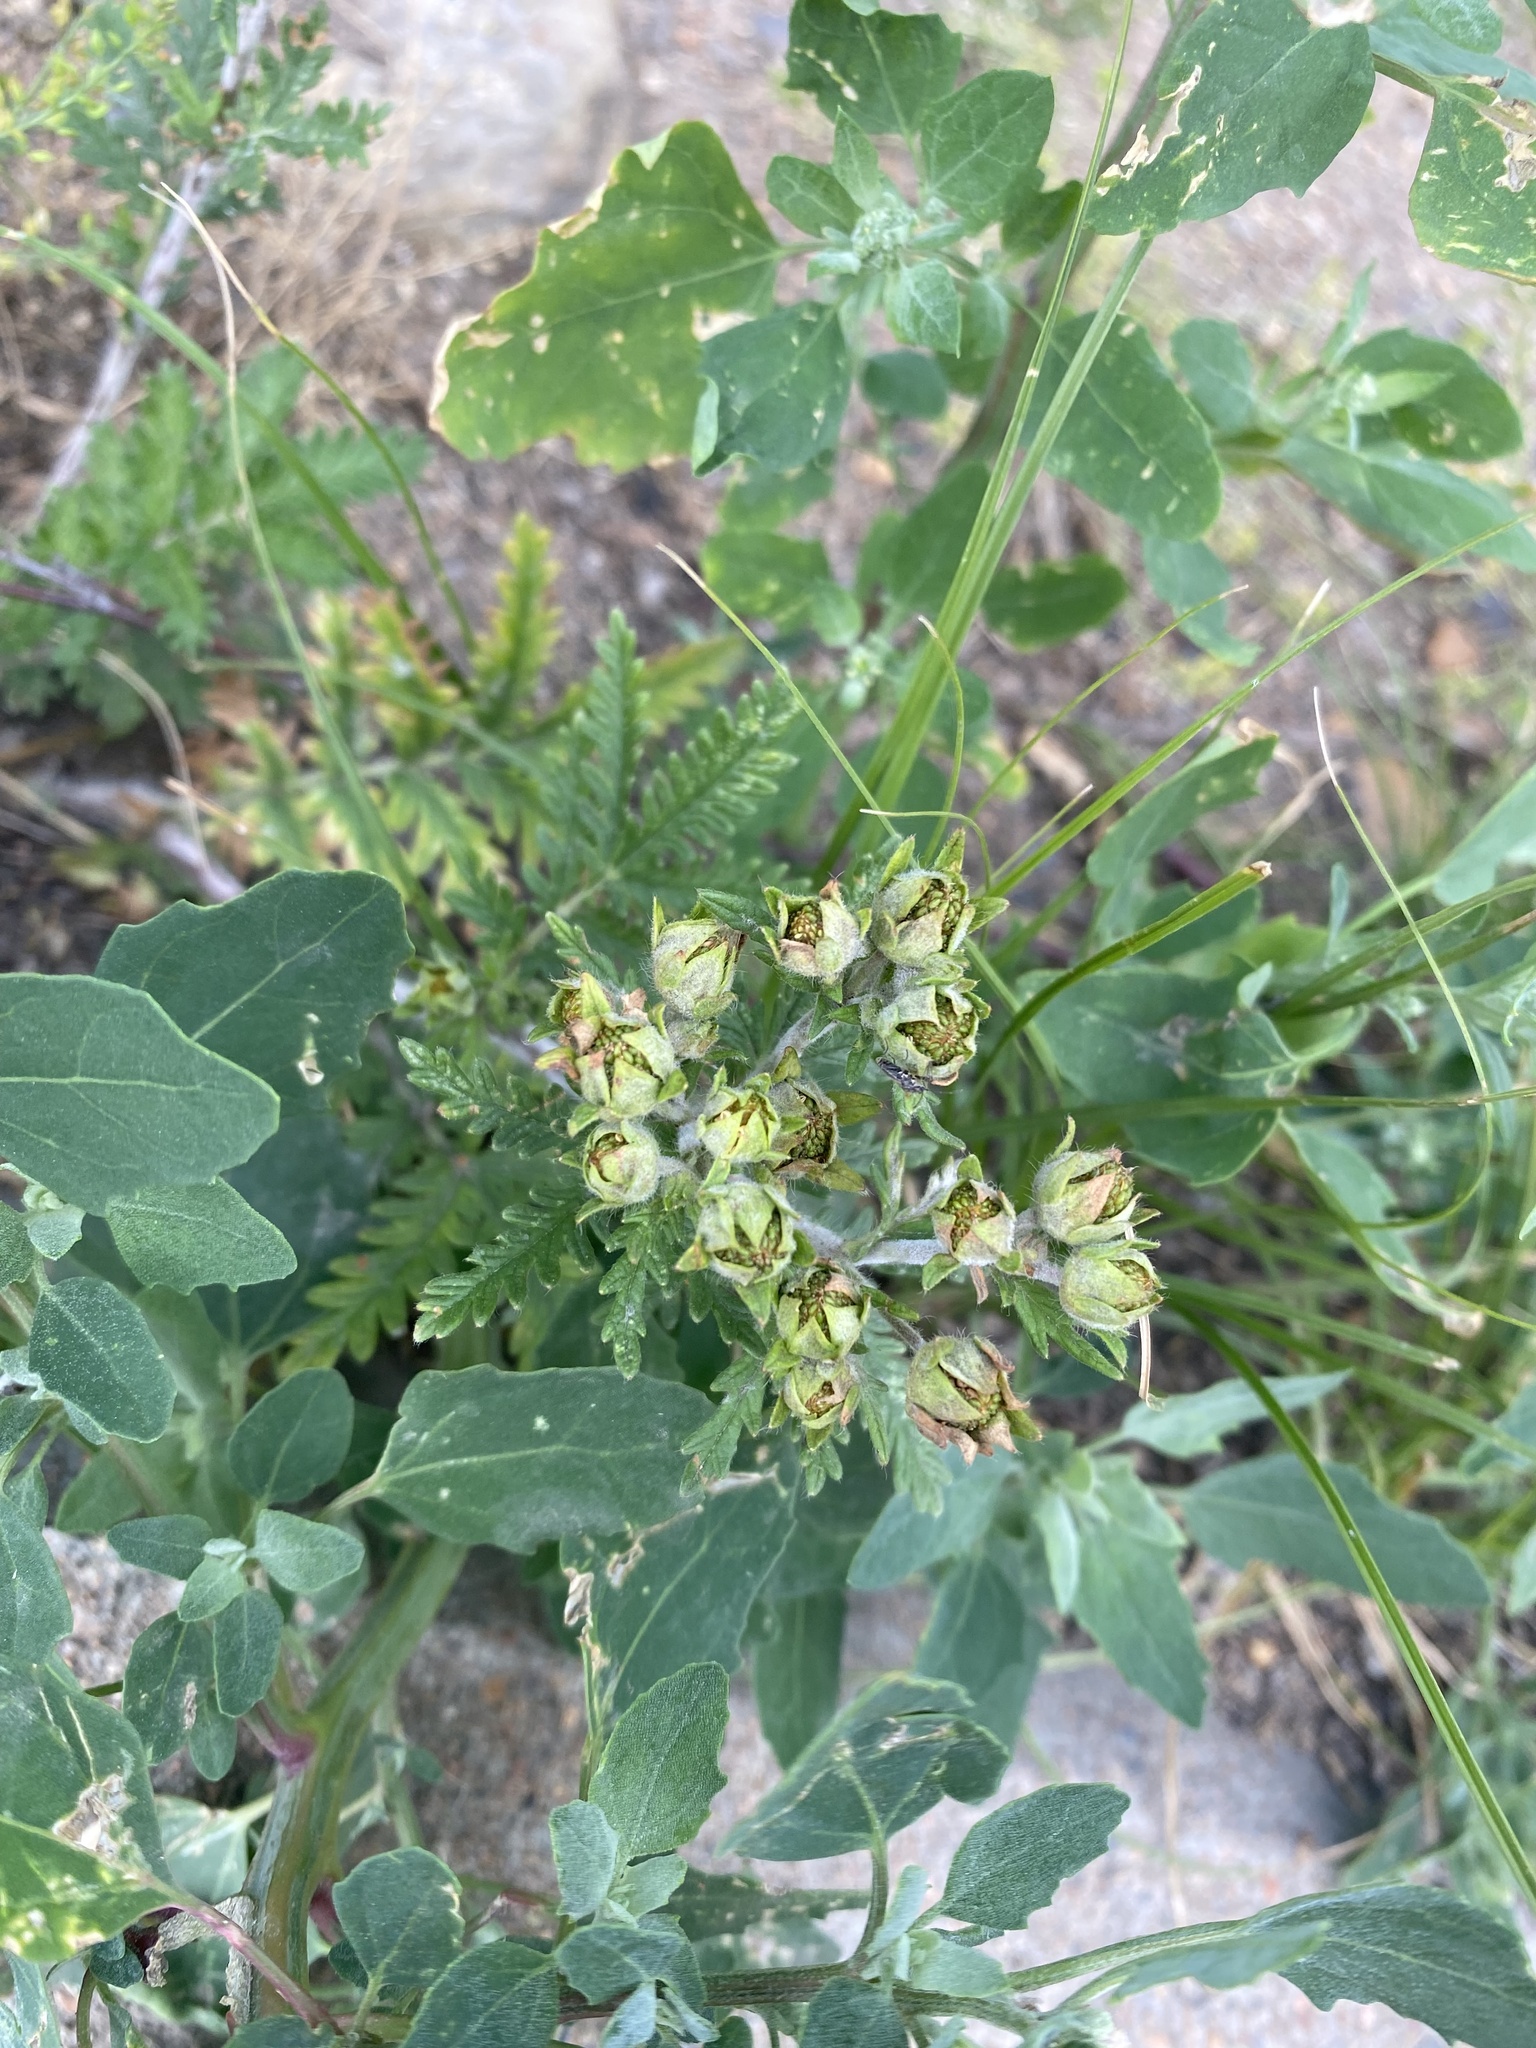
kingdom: Plantae
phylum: Tracheophyta
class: Magnoliopsida
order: Rosales
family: Rosaceae
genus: Potentilla
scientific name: Potentilla conferta
